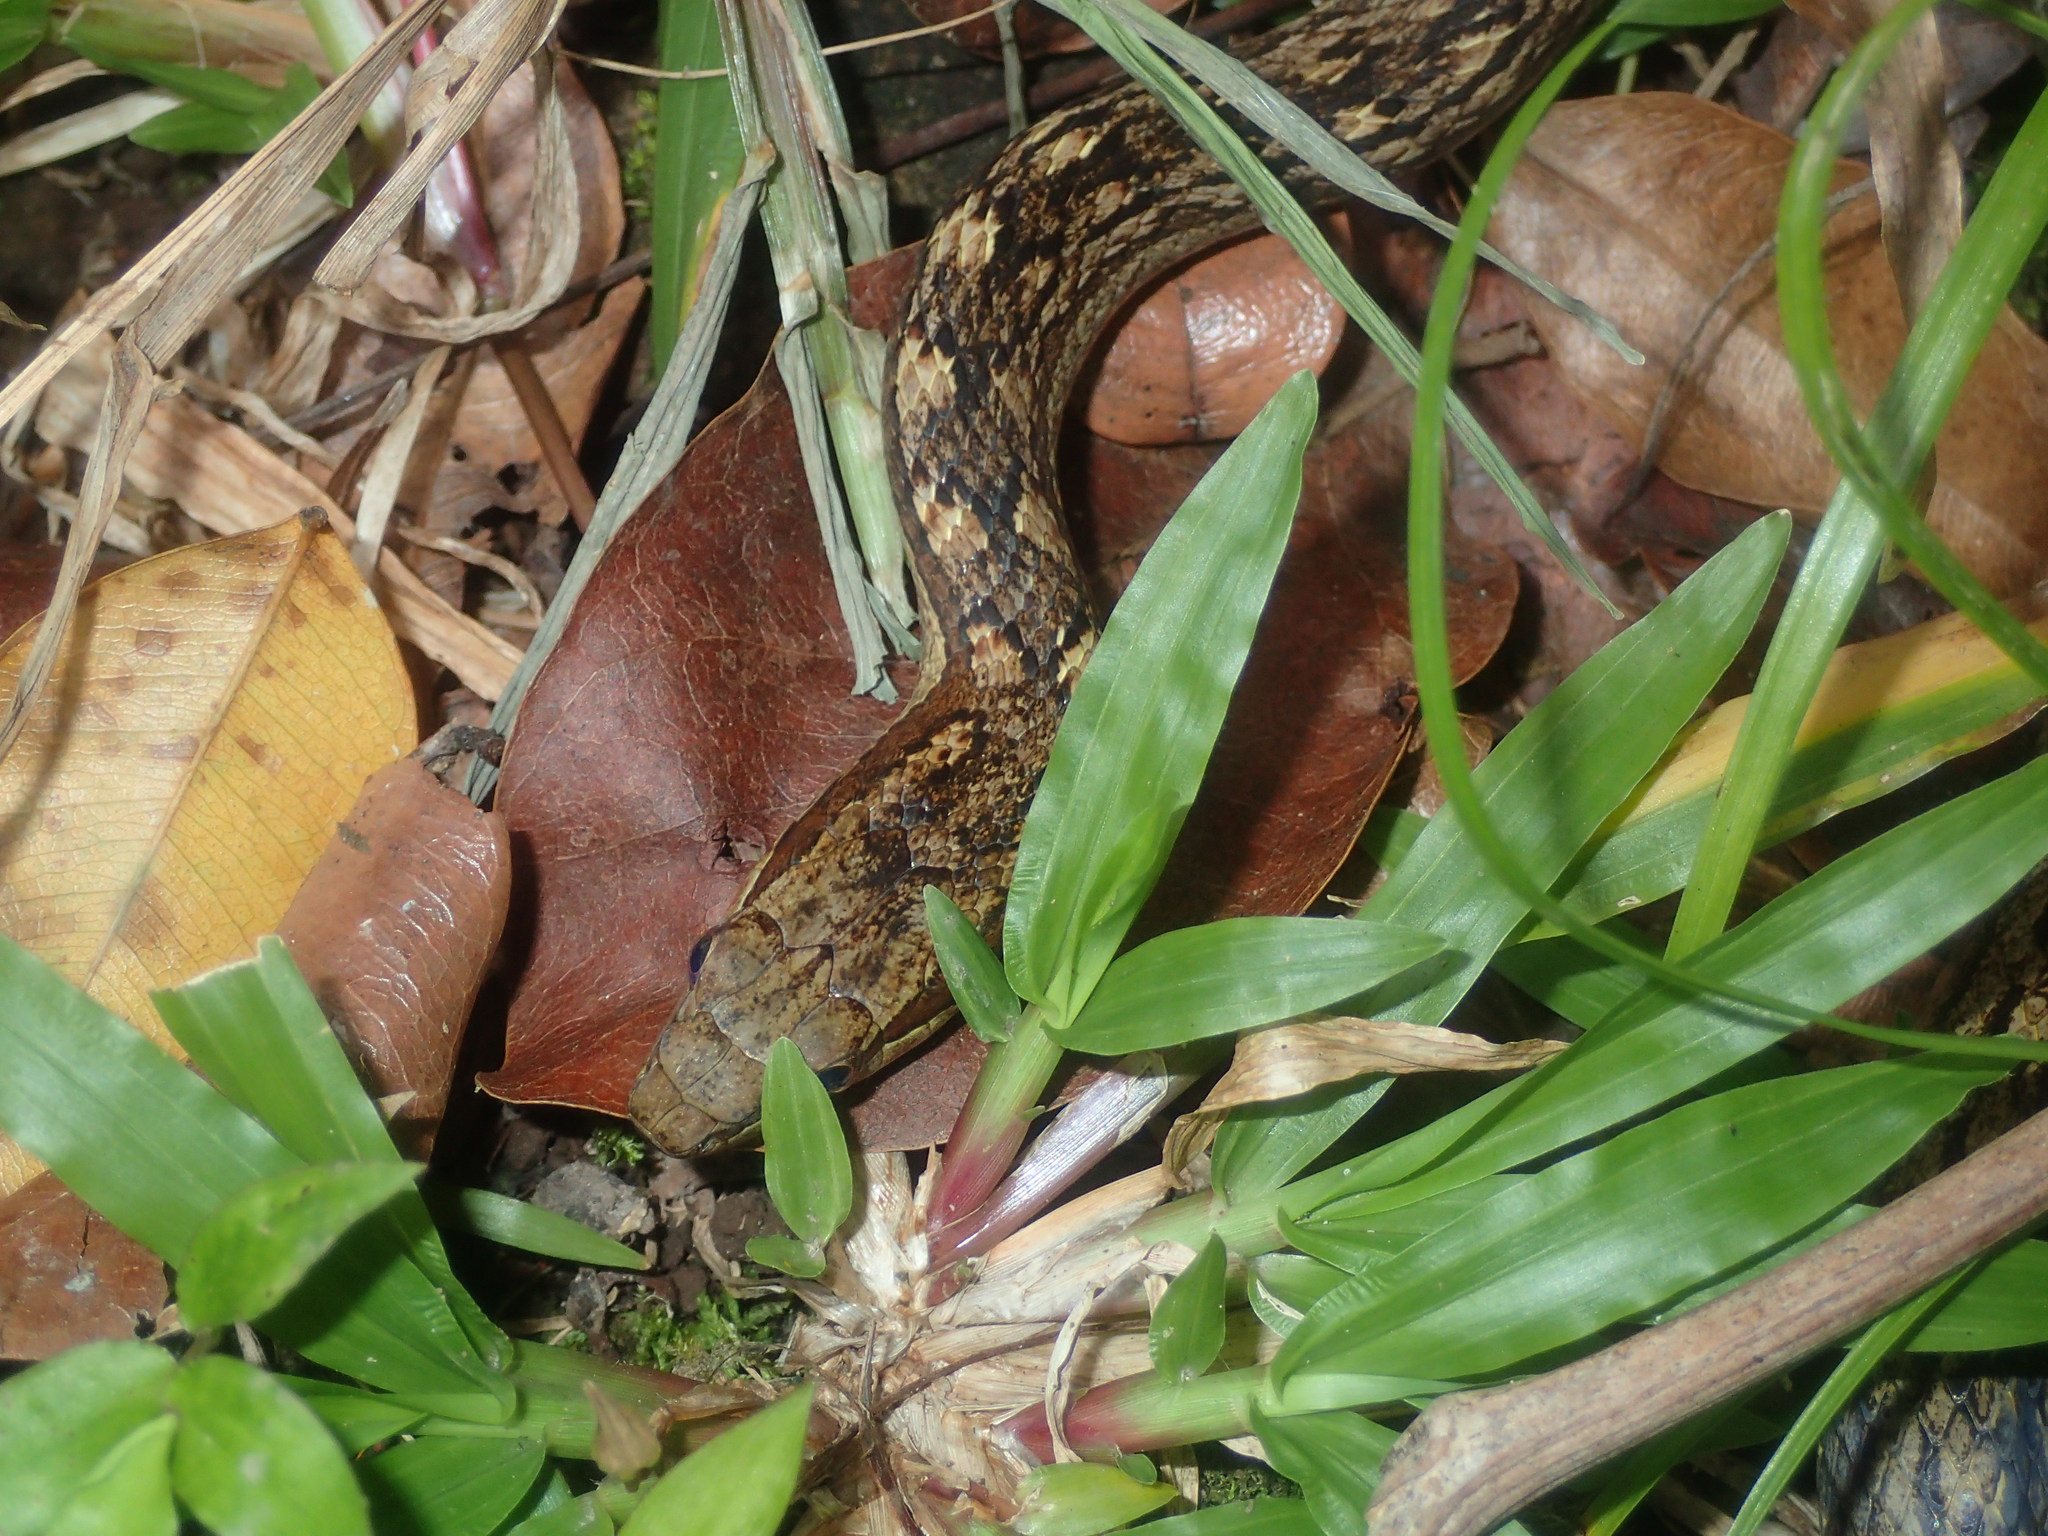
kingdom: Animalia
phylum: Chordata
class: Squamata
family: Colubridae
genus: Alsophis
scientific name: Alsophis rufiventris
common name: Orange-bellied racer
